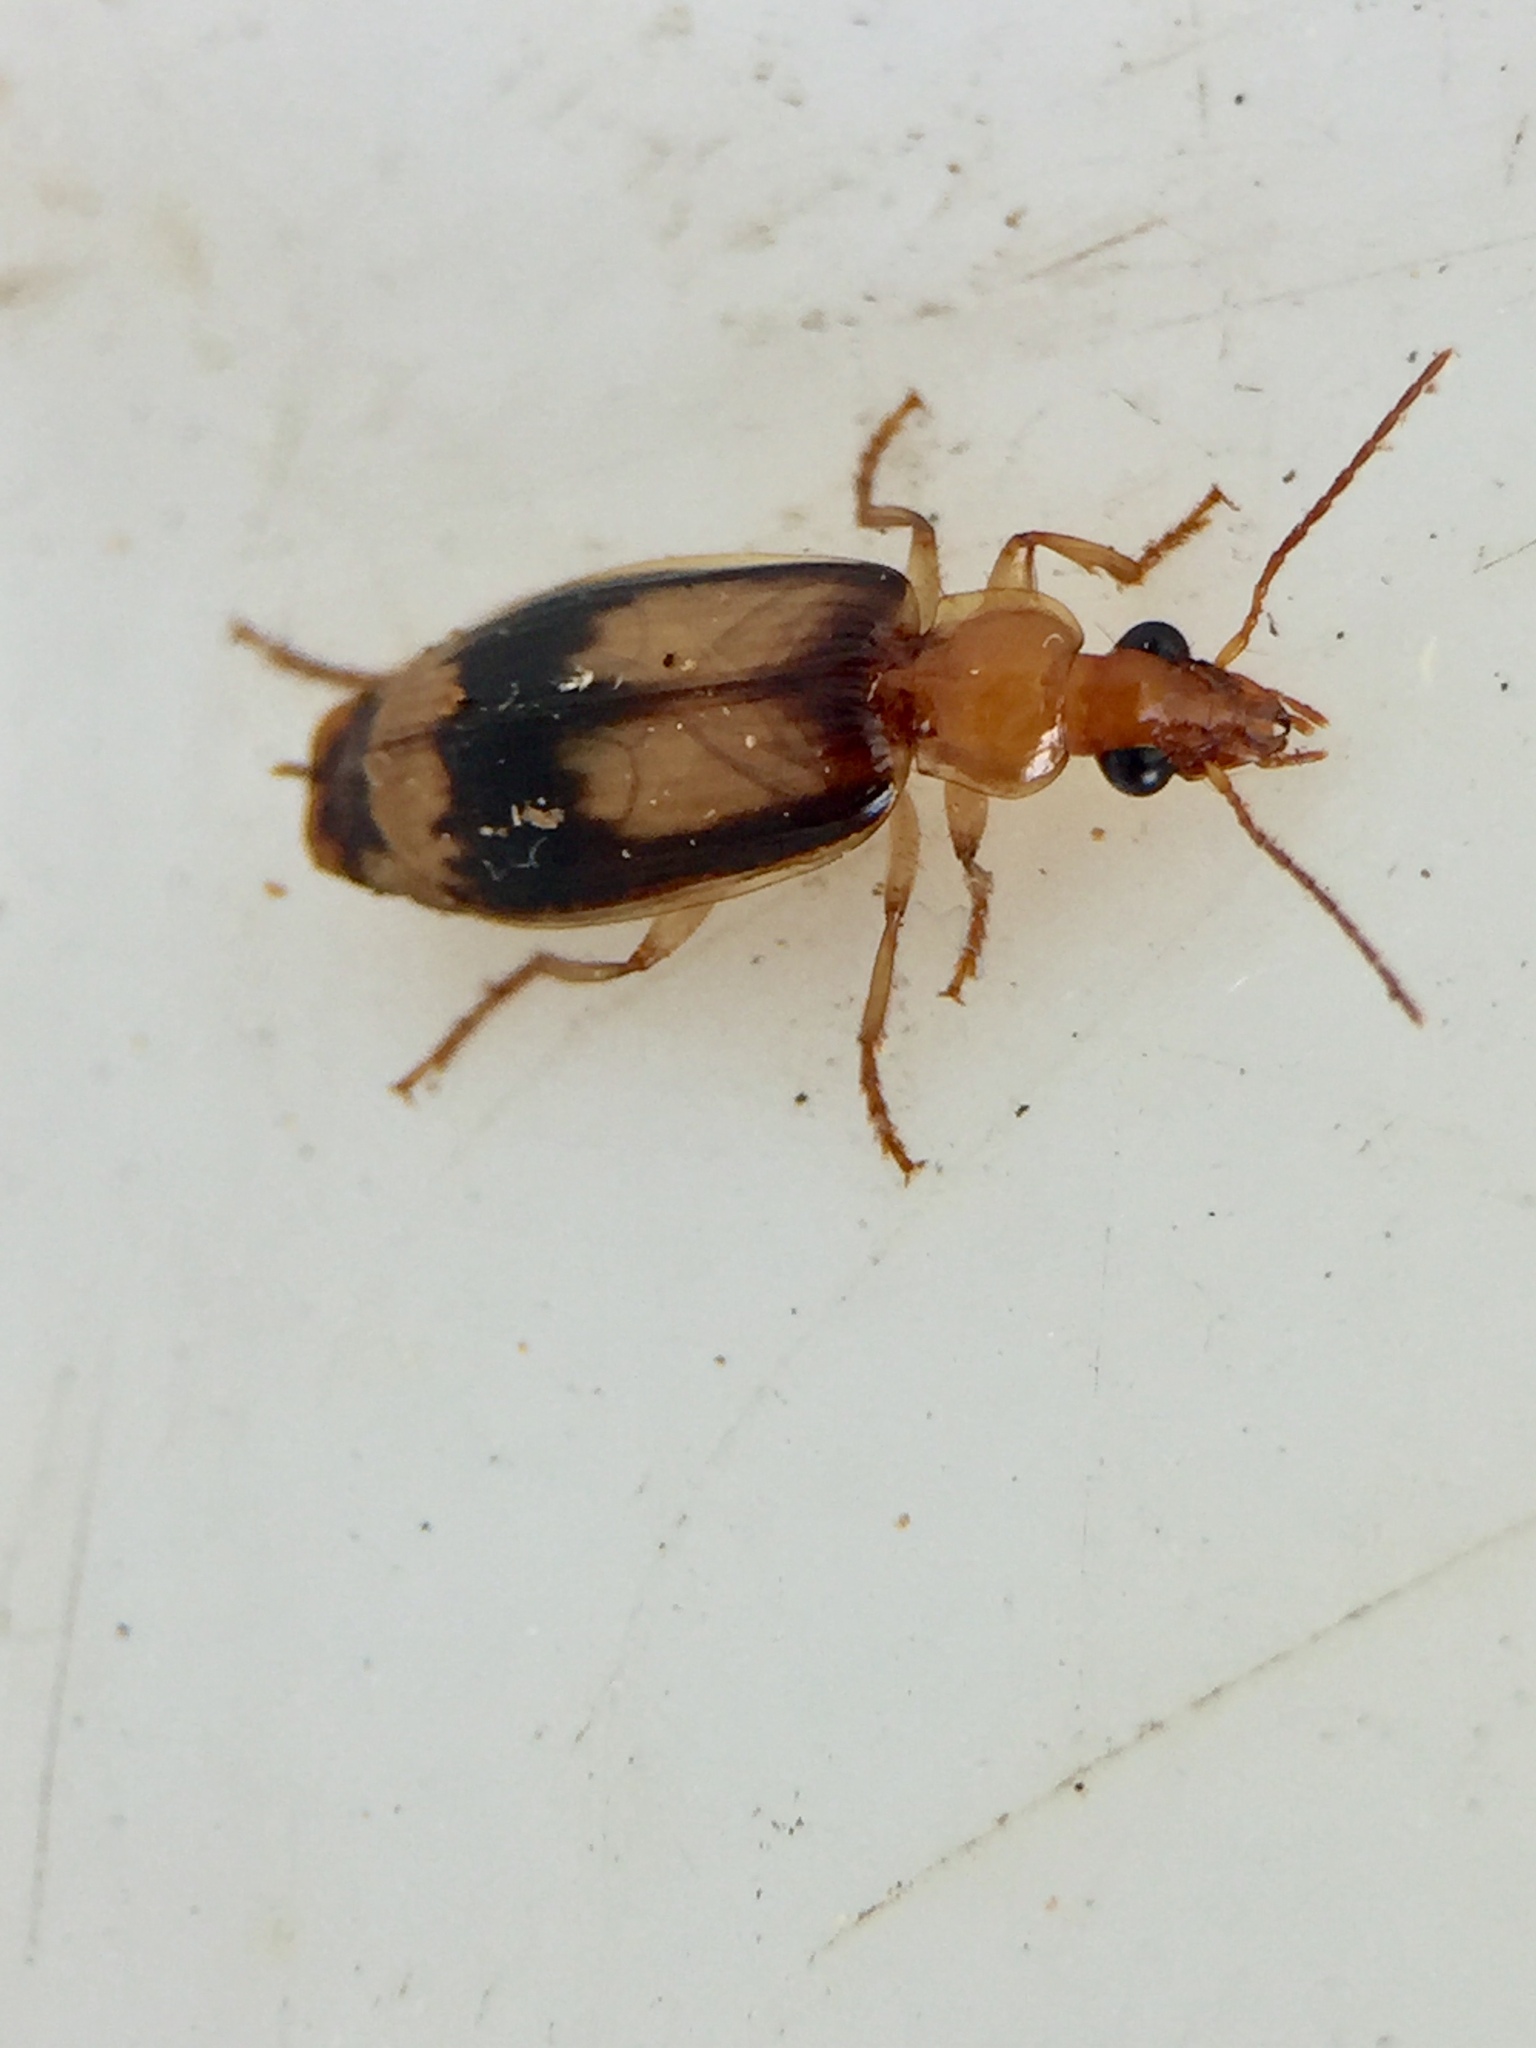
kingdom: Animalia
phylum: Arthropoda
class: Insecta
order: Coleoptera
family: Carabidae
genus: Trigonothops
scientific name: Trigonothops pacificus
